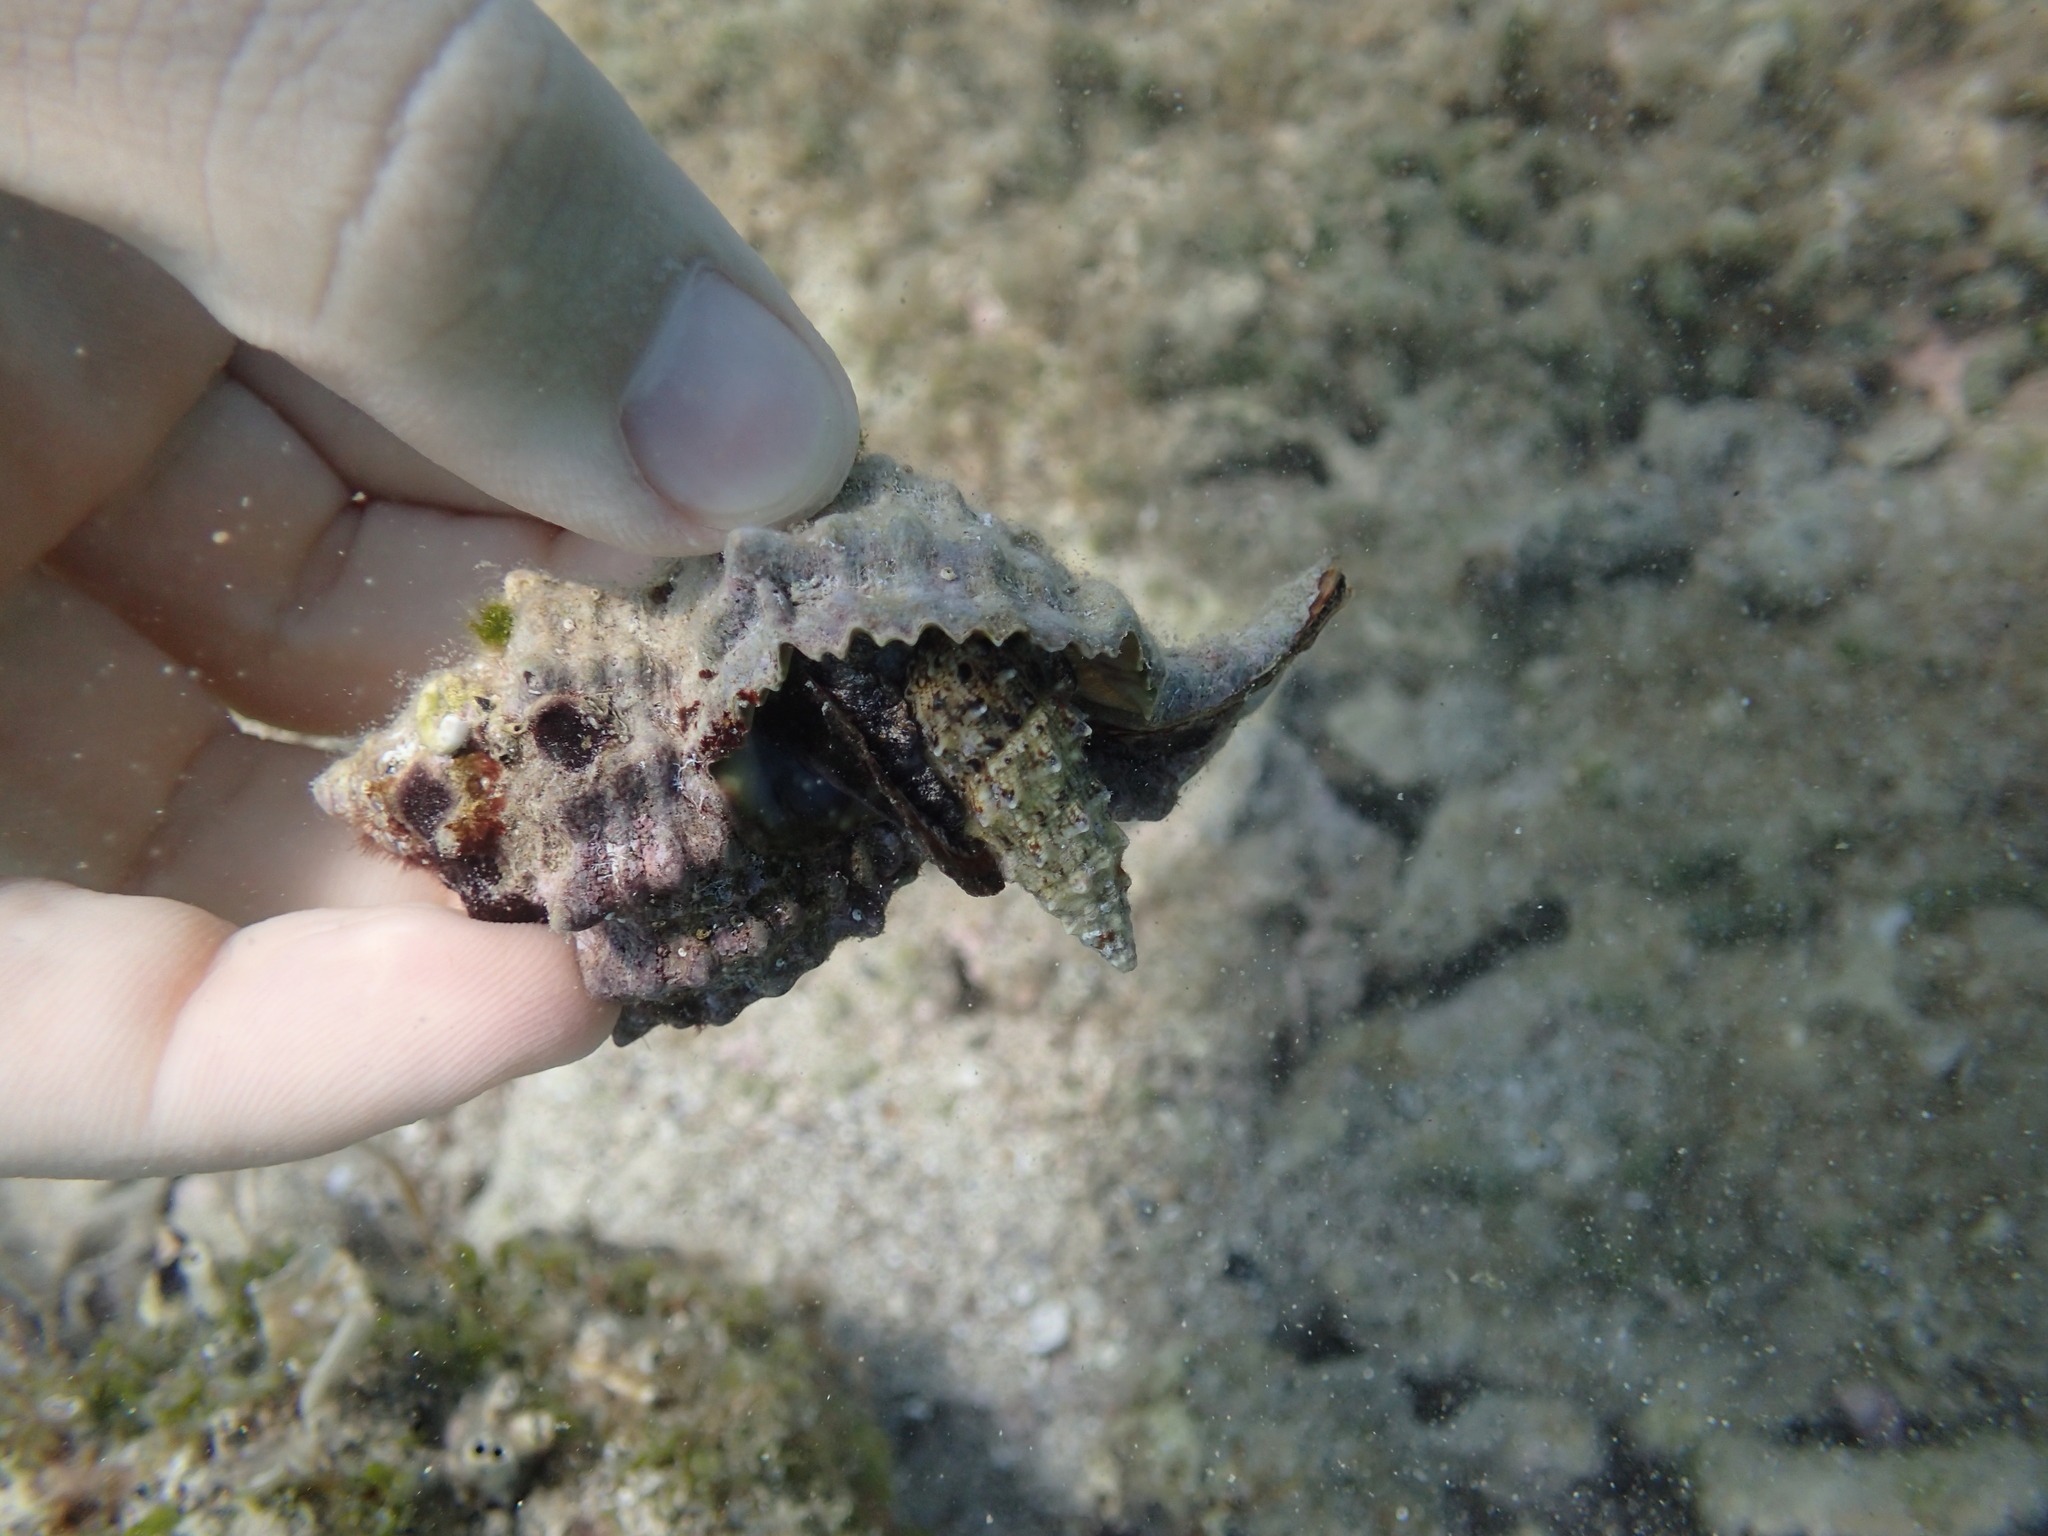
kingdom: Animalia
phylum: Mollusca
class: Gastropoda
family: Cerithiidae
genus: Cerithium
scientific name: Cerithium vulgatum
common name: European cerith
